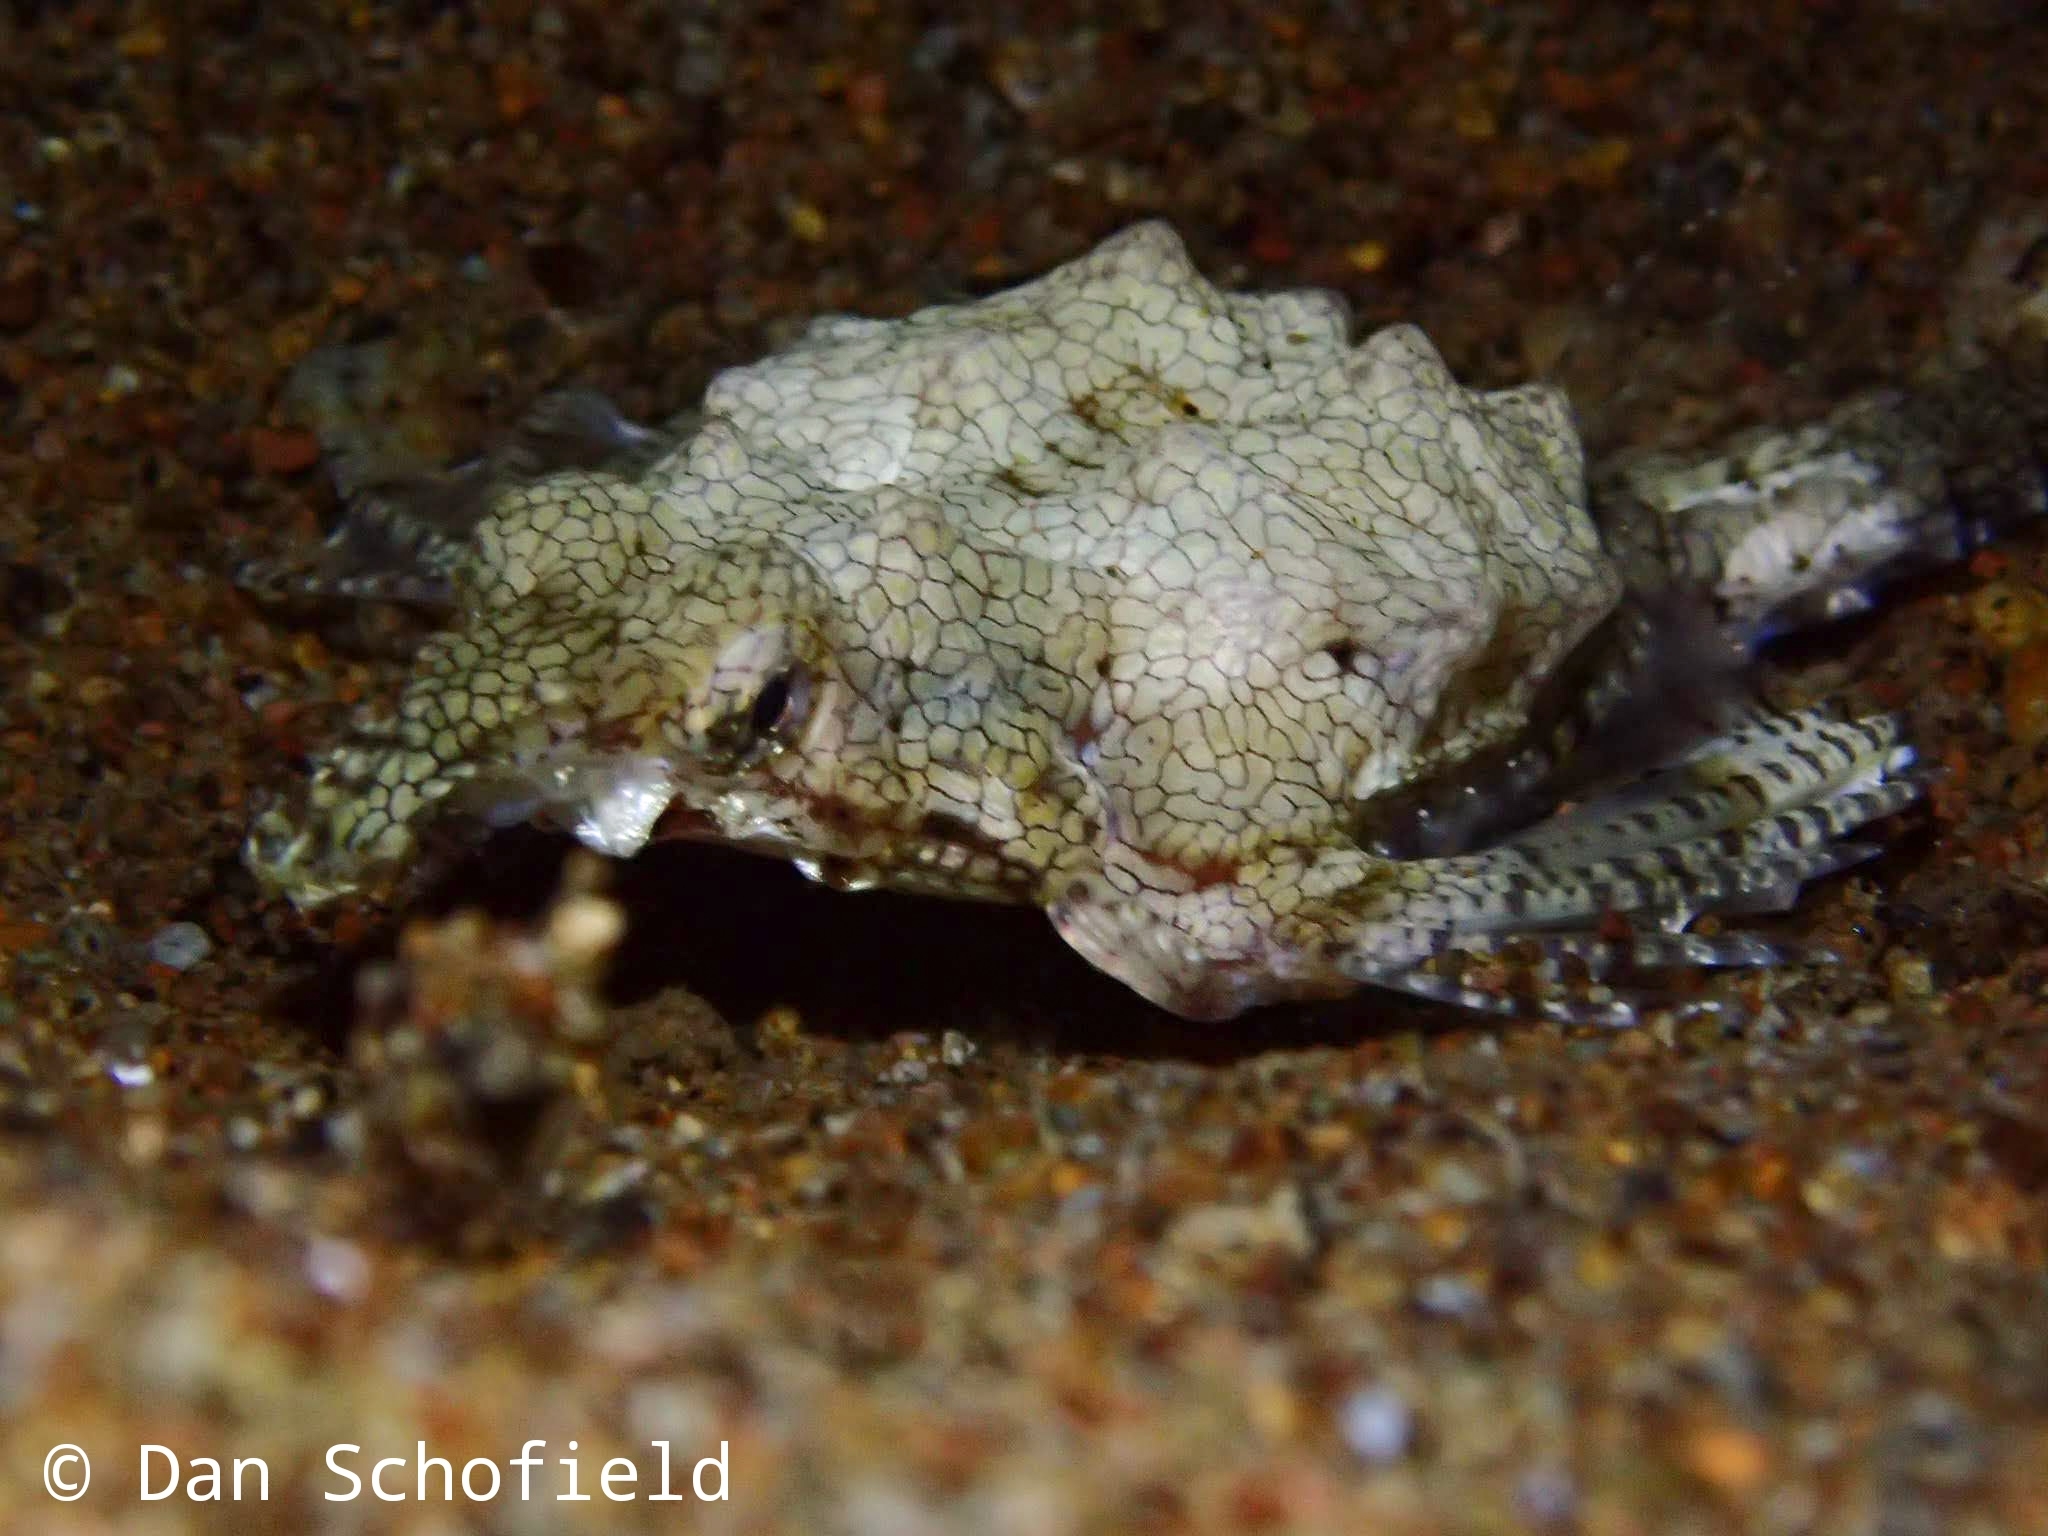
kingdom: Animalia
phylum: Chordata
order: Gasterosteiformes
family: Pegasidae
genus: Eurypegasus
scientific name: Eurypegasus draconis
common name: Short dragonfish
